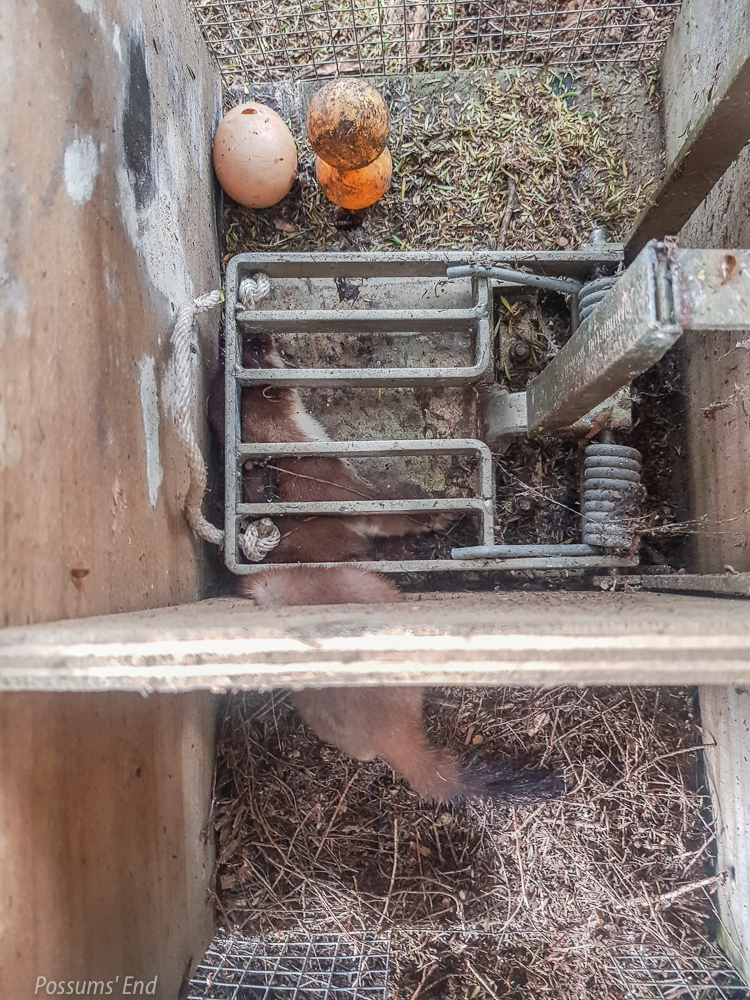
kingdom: Animalia
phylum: Chordata
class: Mammalia
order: Carnivora
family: Mustelidae
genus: Mustela
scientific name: Mustela erminea
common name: Stoat
